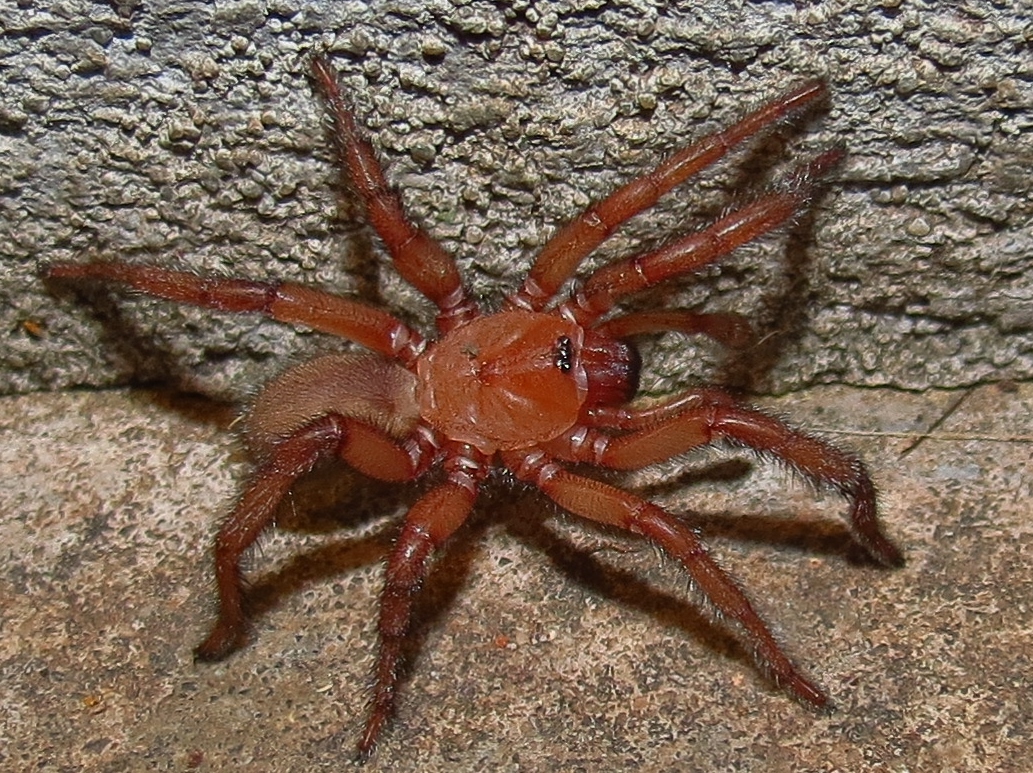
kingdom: Animalia
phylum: Arthropoda
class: Arachnida
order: Araneae
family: Euctenizidae
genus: Myrmekiaphila
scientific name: Myrmekiaphila comstocki
